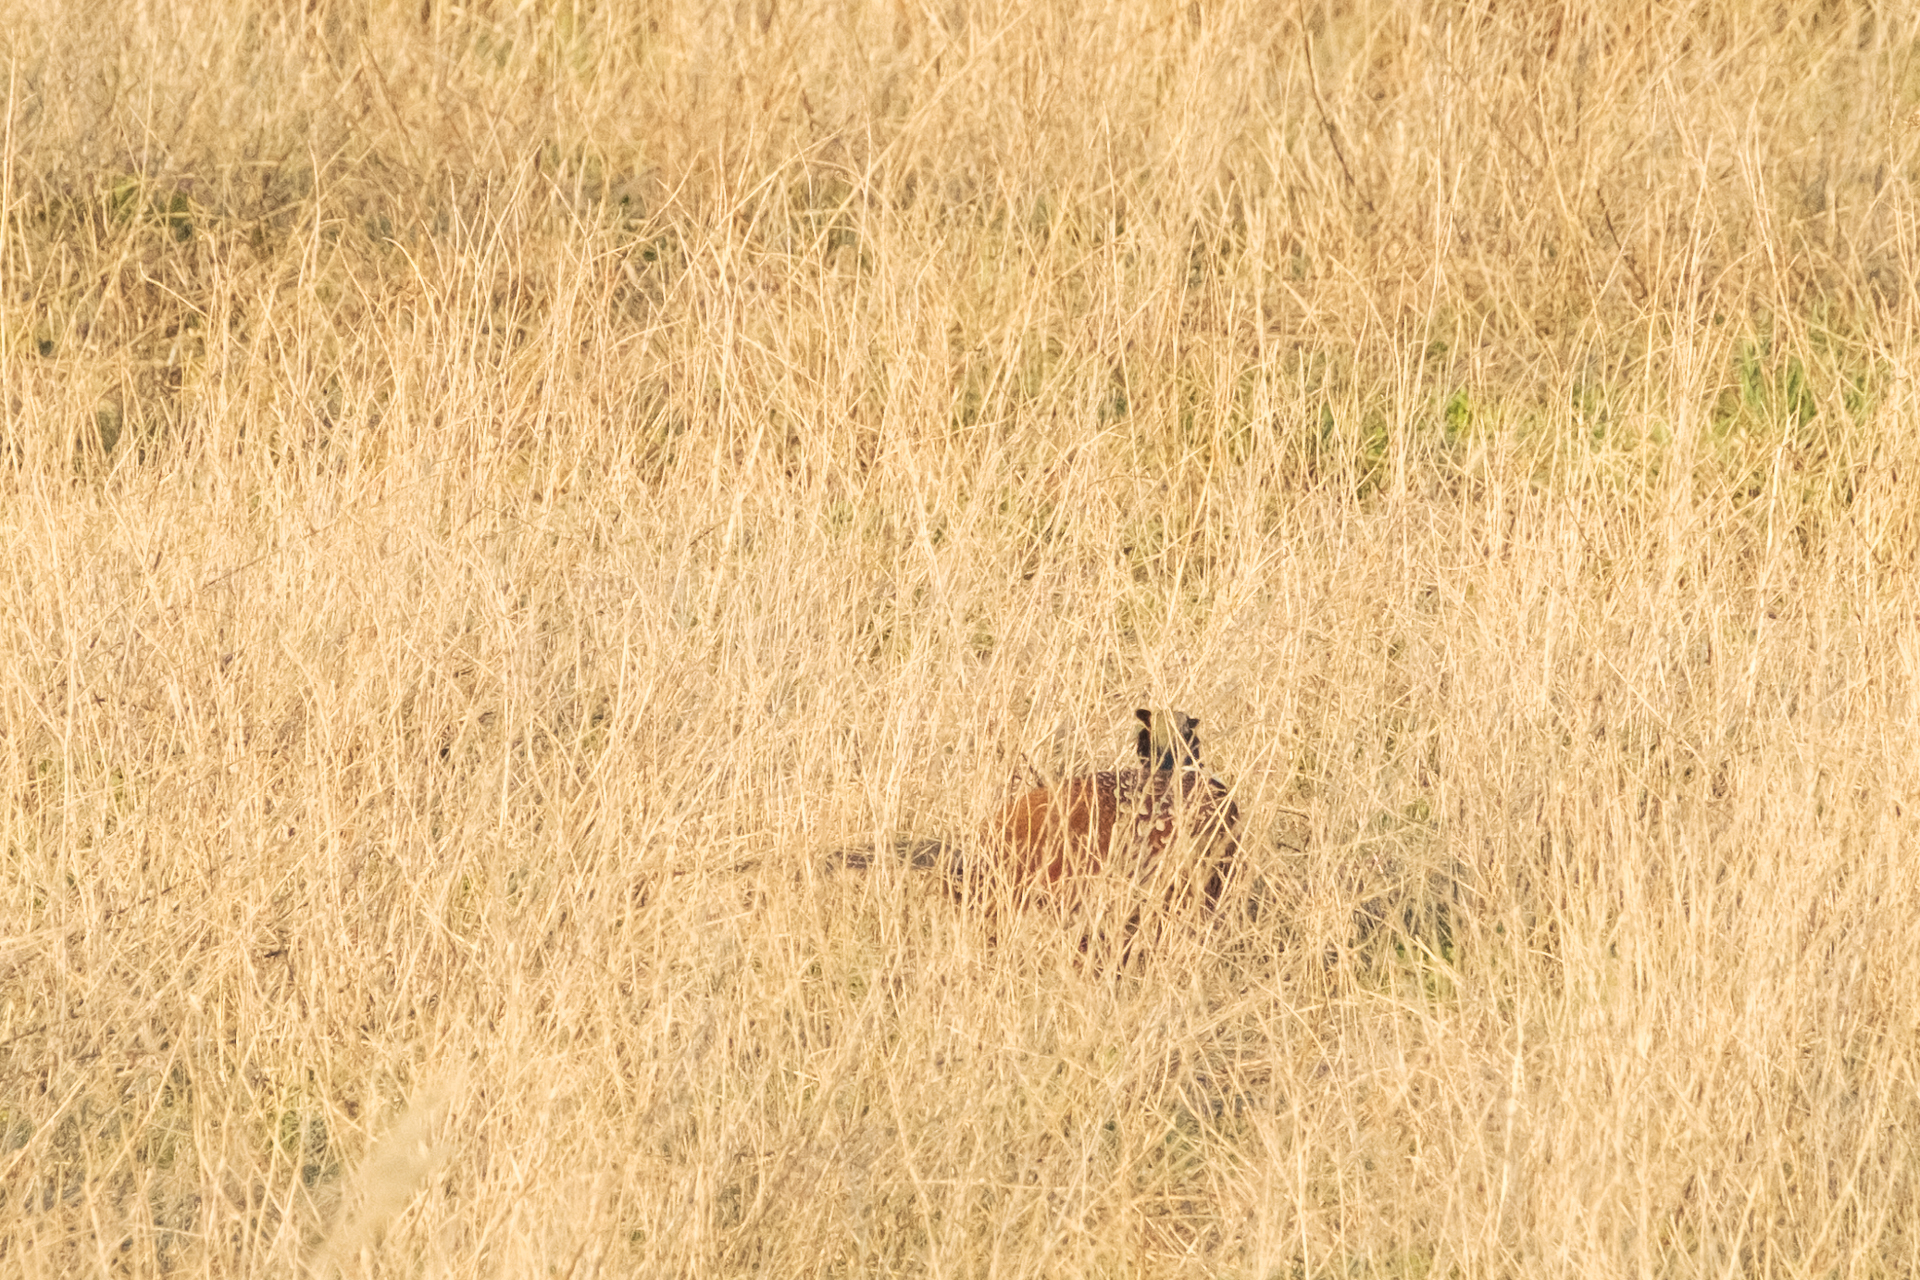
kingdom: Animalia
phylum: Chordata
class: Aves
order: Galliformes
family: Phasianidae
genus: Phasianus
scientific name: Phasianus colchicus
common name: Common pheasant
